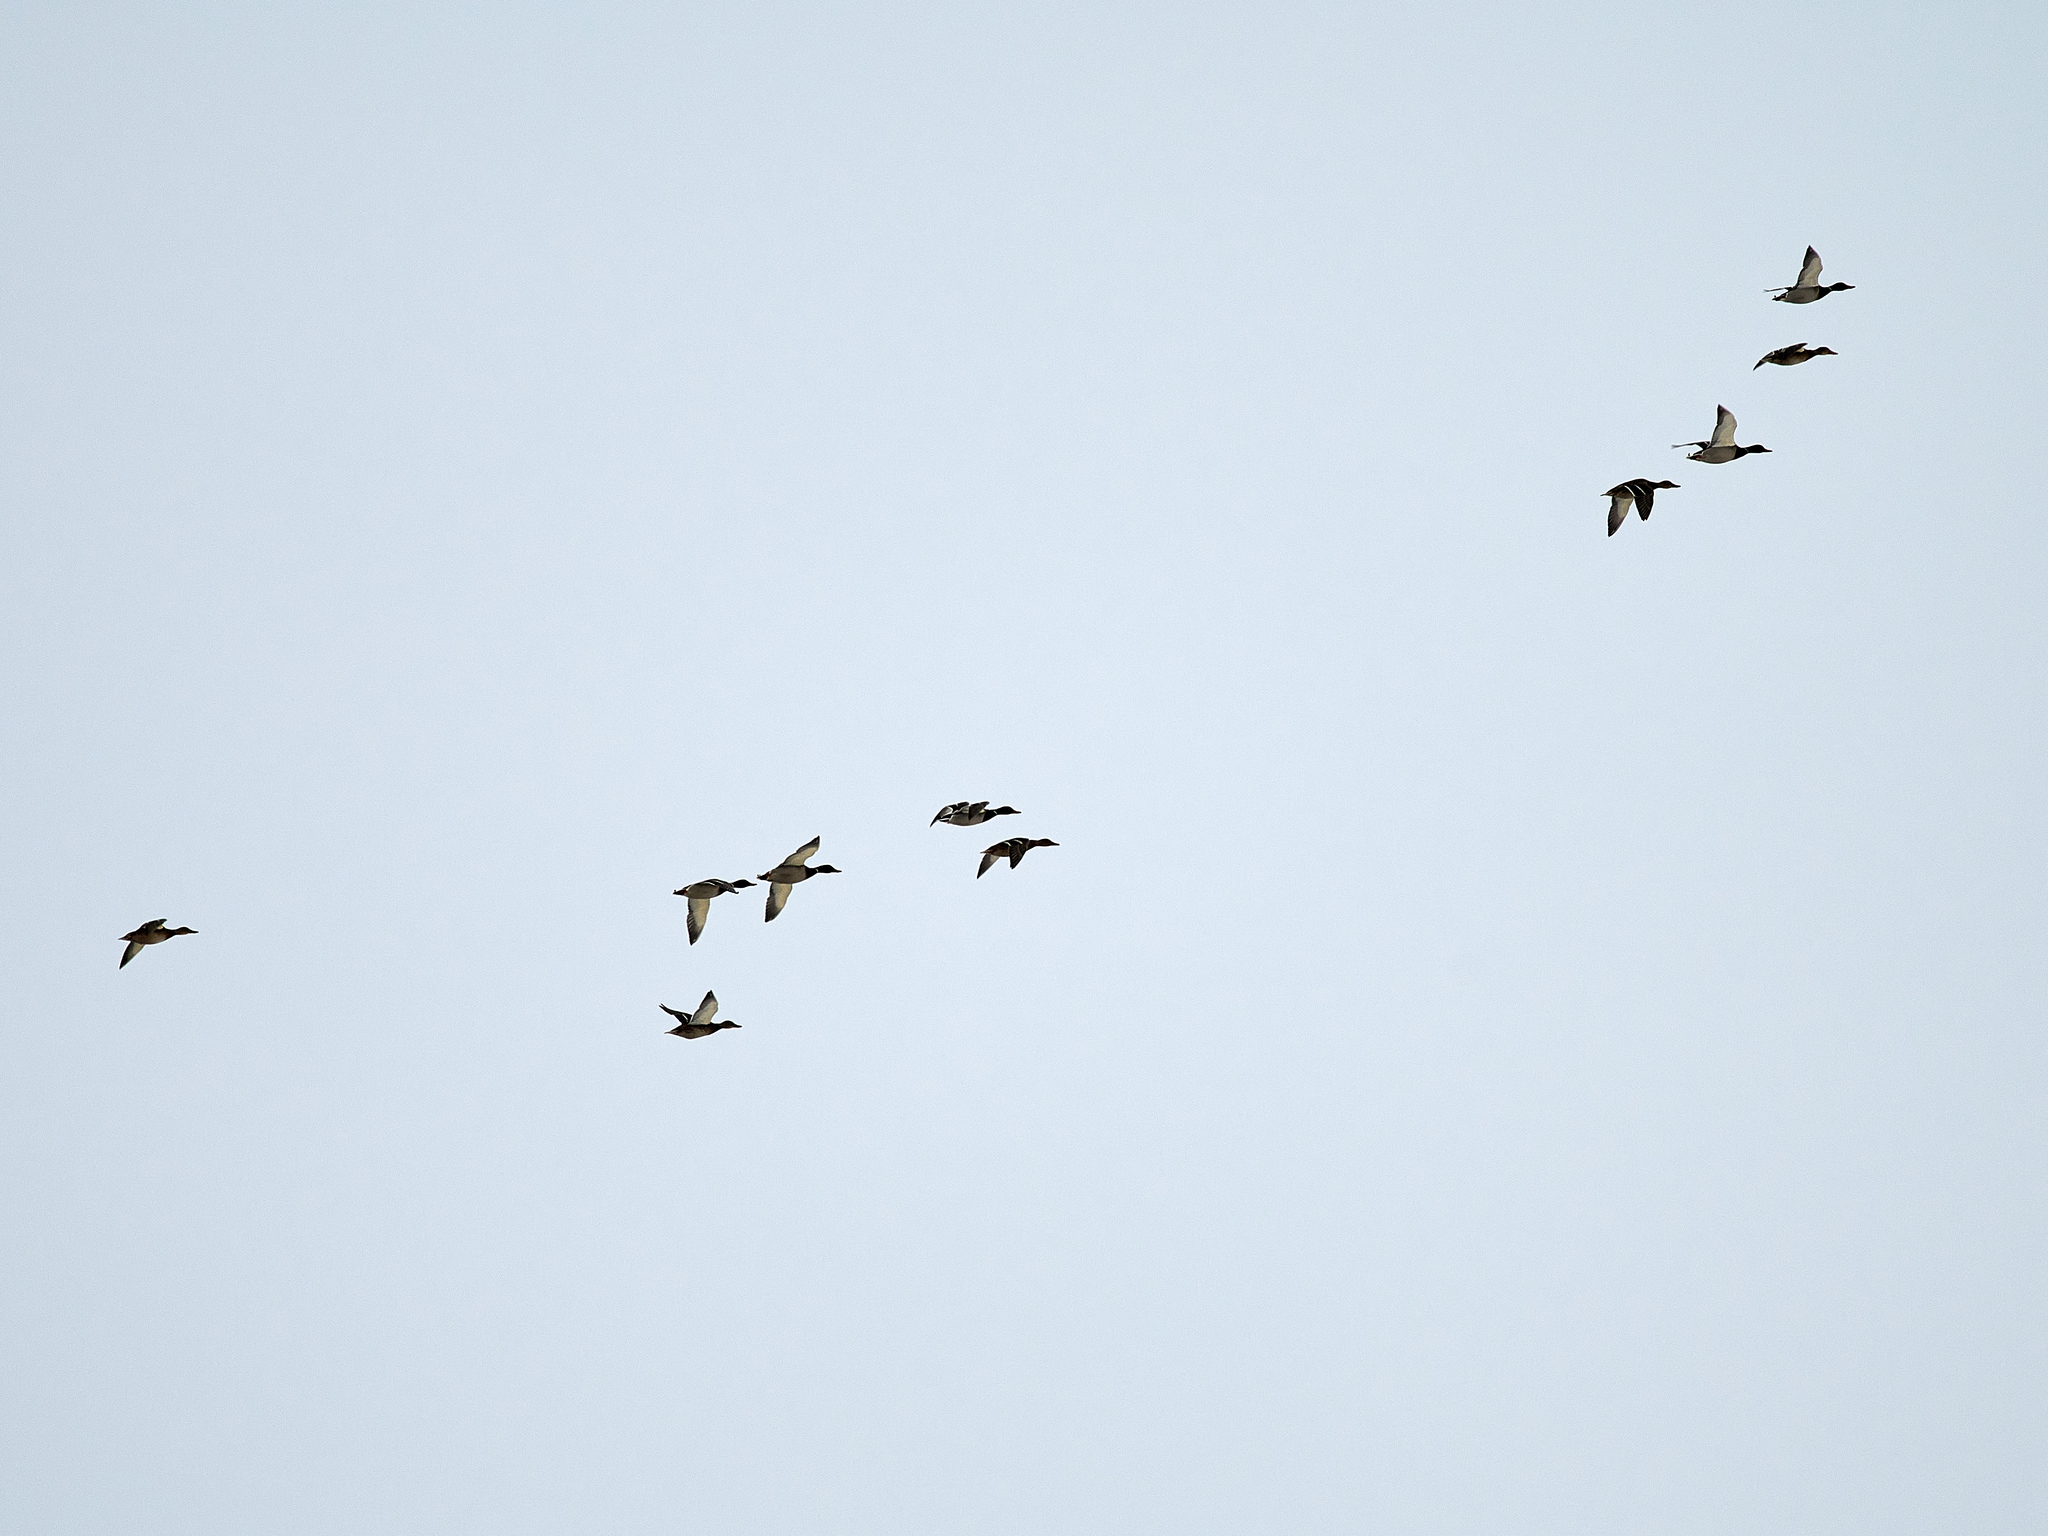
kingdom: Animalia
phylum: Chordata
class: Aves
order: Anseriformes
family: Anatidae
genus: Anas
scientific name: Anas platyrhynchos
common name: Mallard
